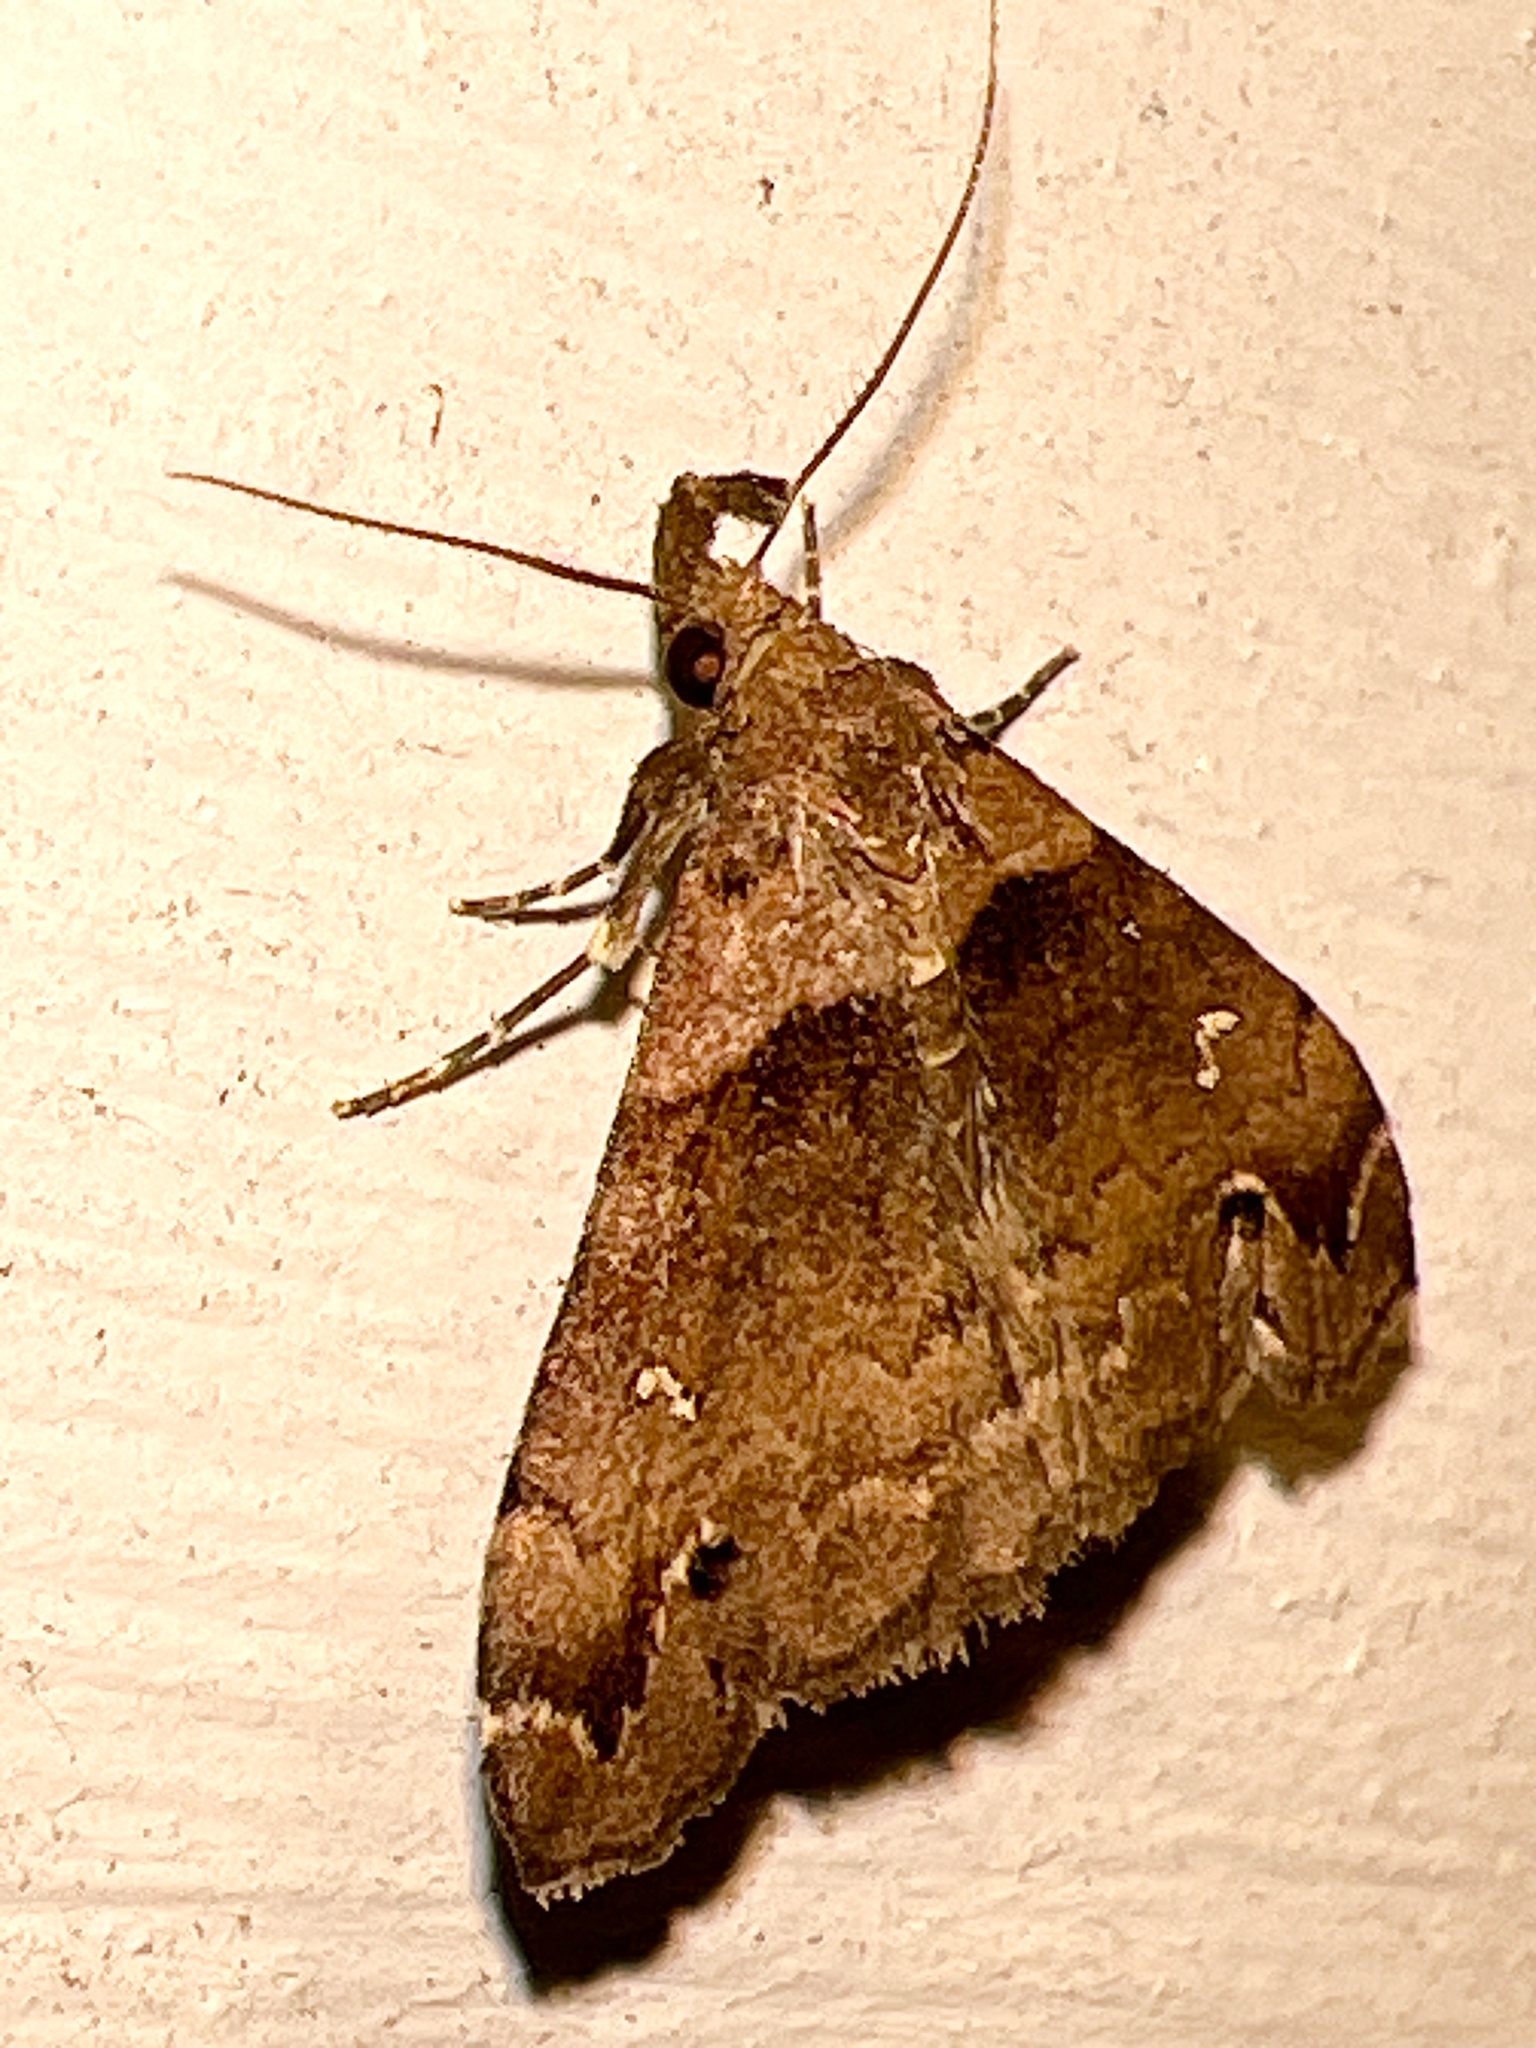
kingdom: Animalia
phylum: Arthropoda
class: Insecta
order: Lepidoptera
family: Erebidae
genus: Lascoria
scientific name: Lascoria ambigualis
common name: Ambiguous moth
